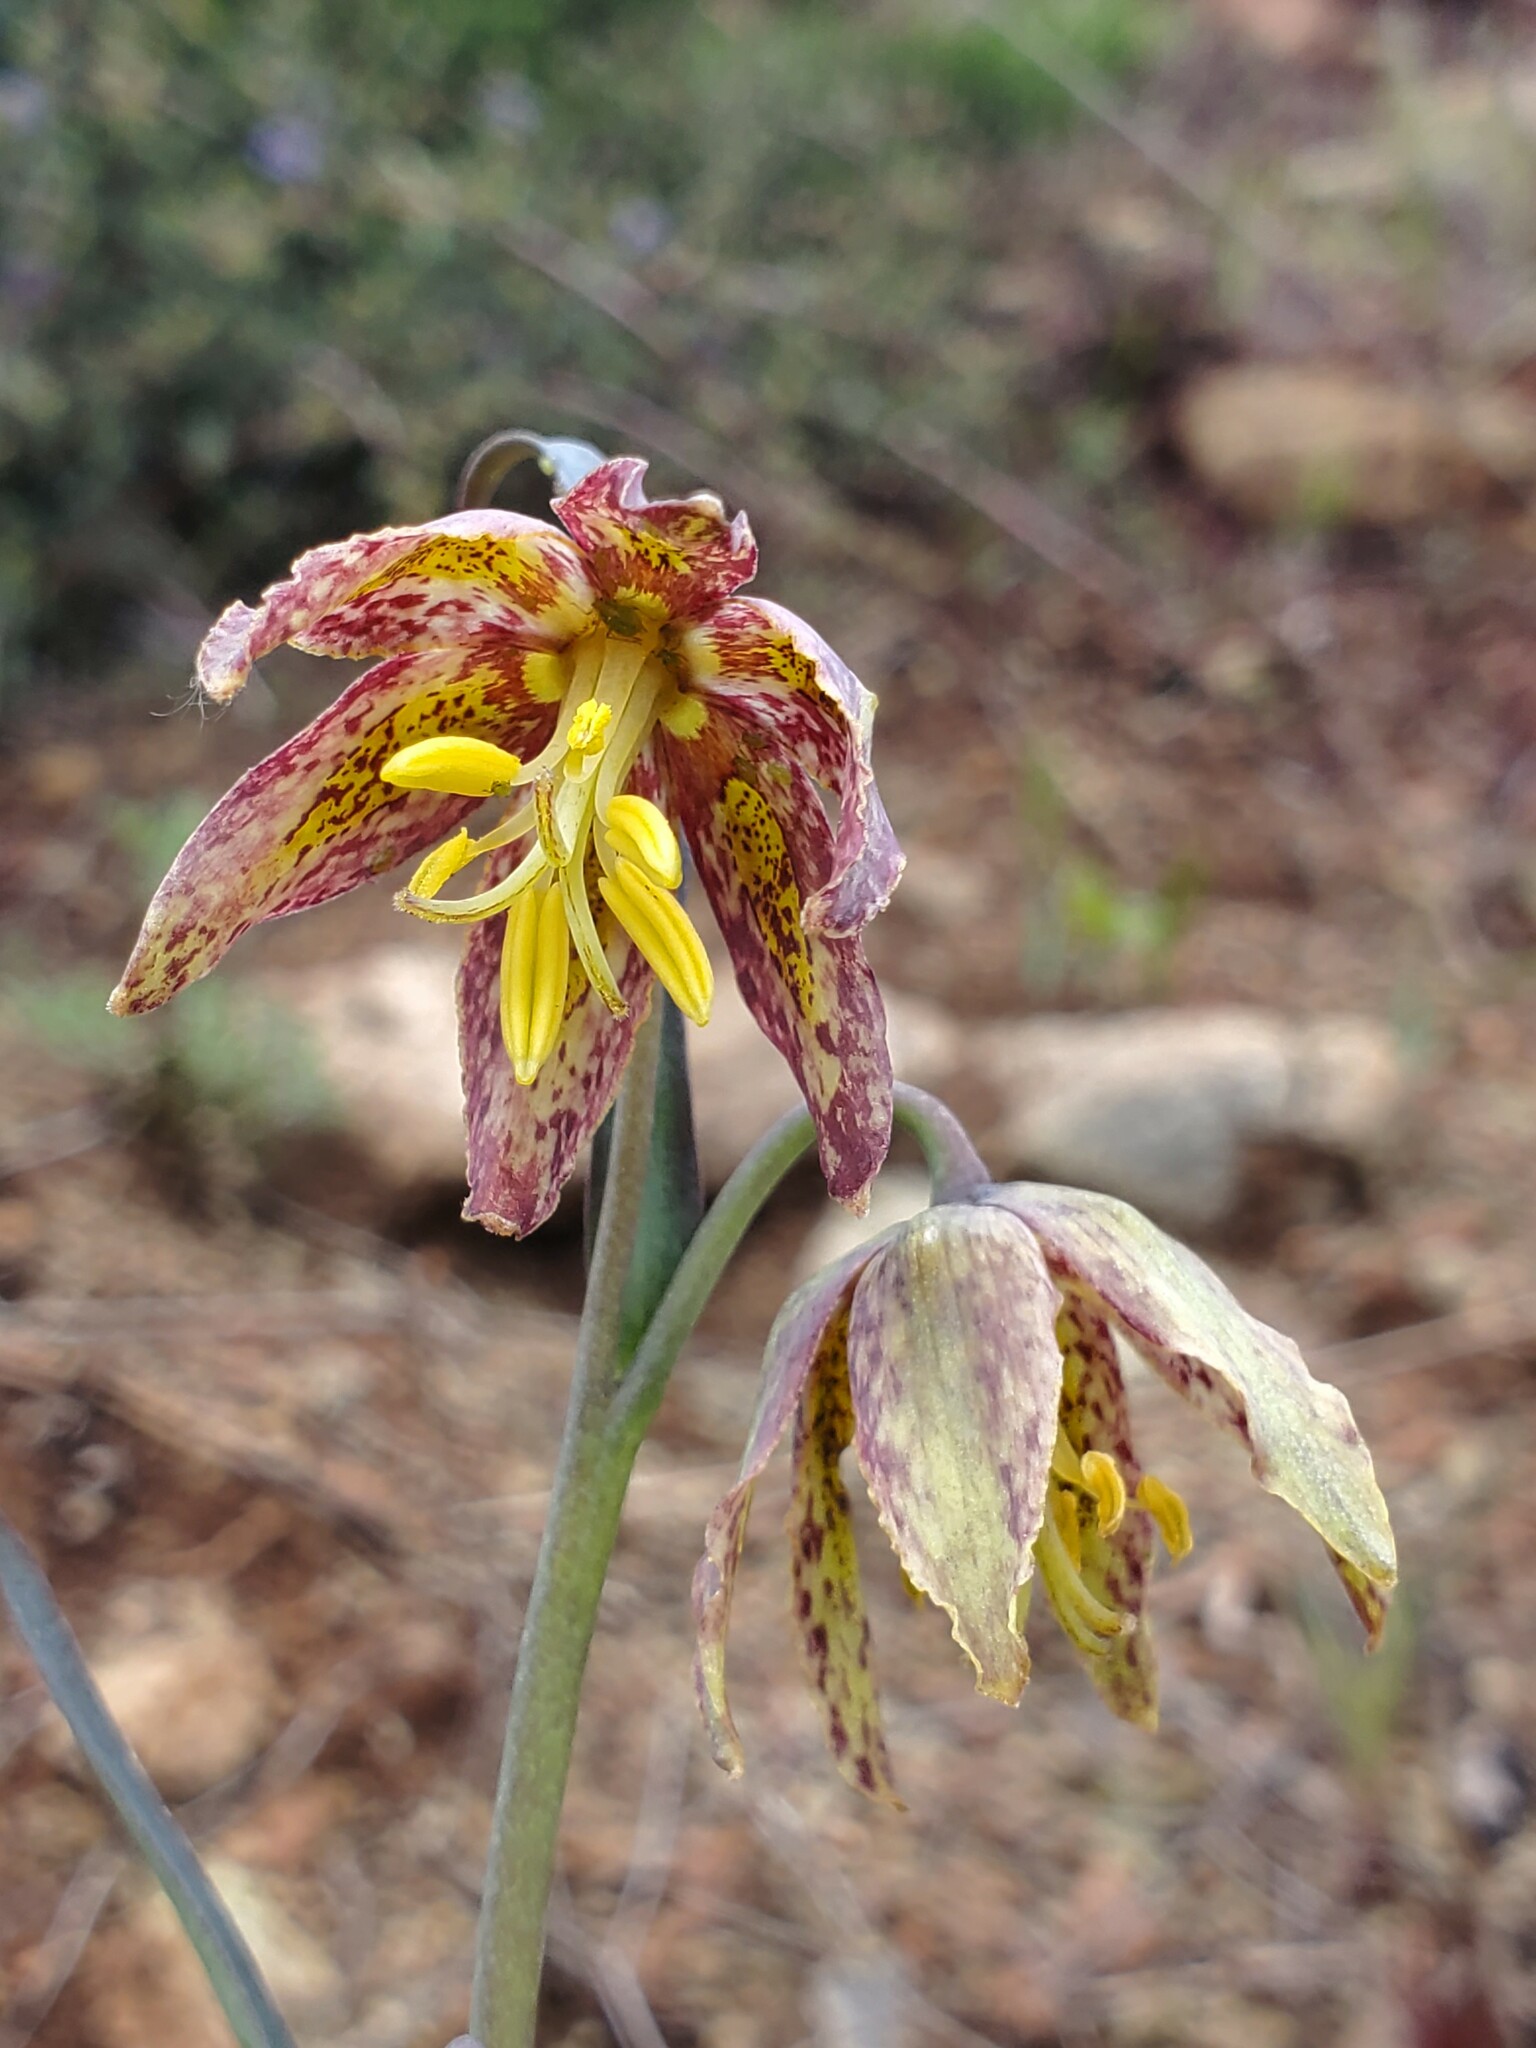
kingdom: Plantae
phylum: Tracheophyta
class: Liliopsida
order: Liliales
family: Liliaceae
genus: Fritillaria
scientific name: Fritillaria affinis
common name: Ojai fritillary
